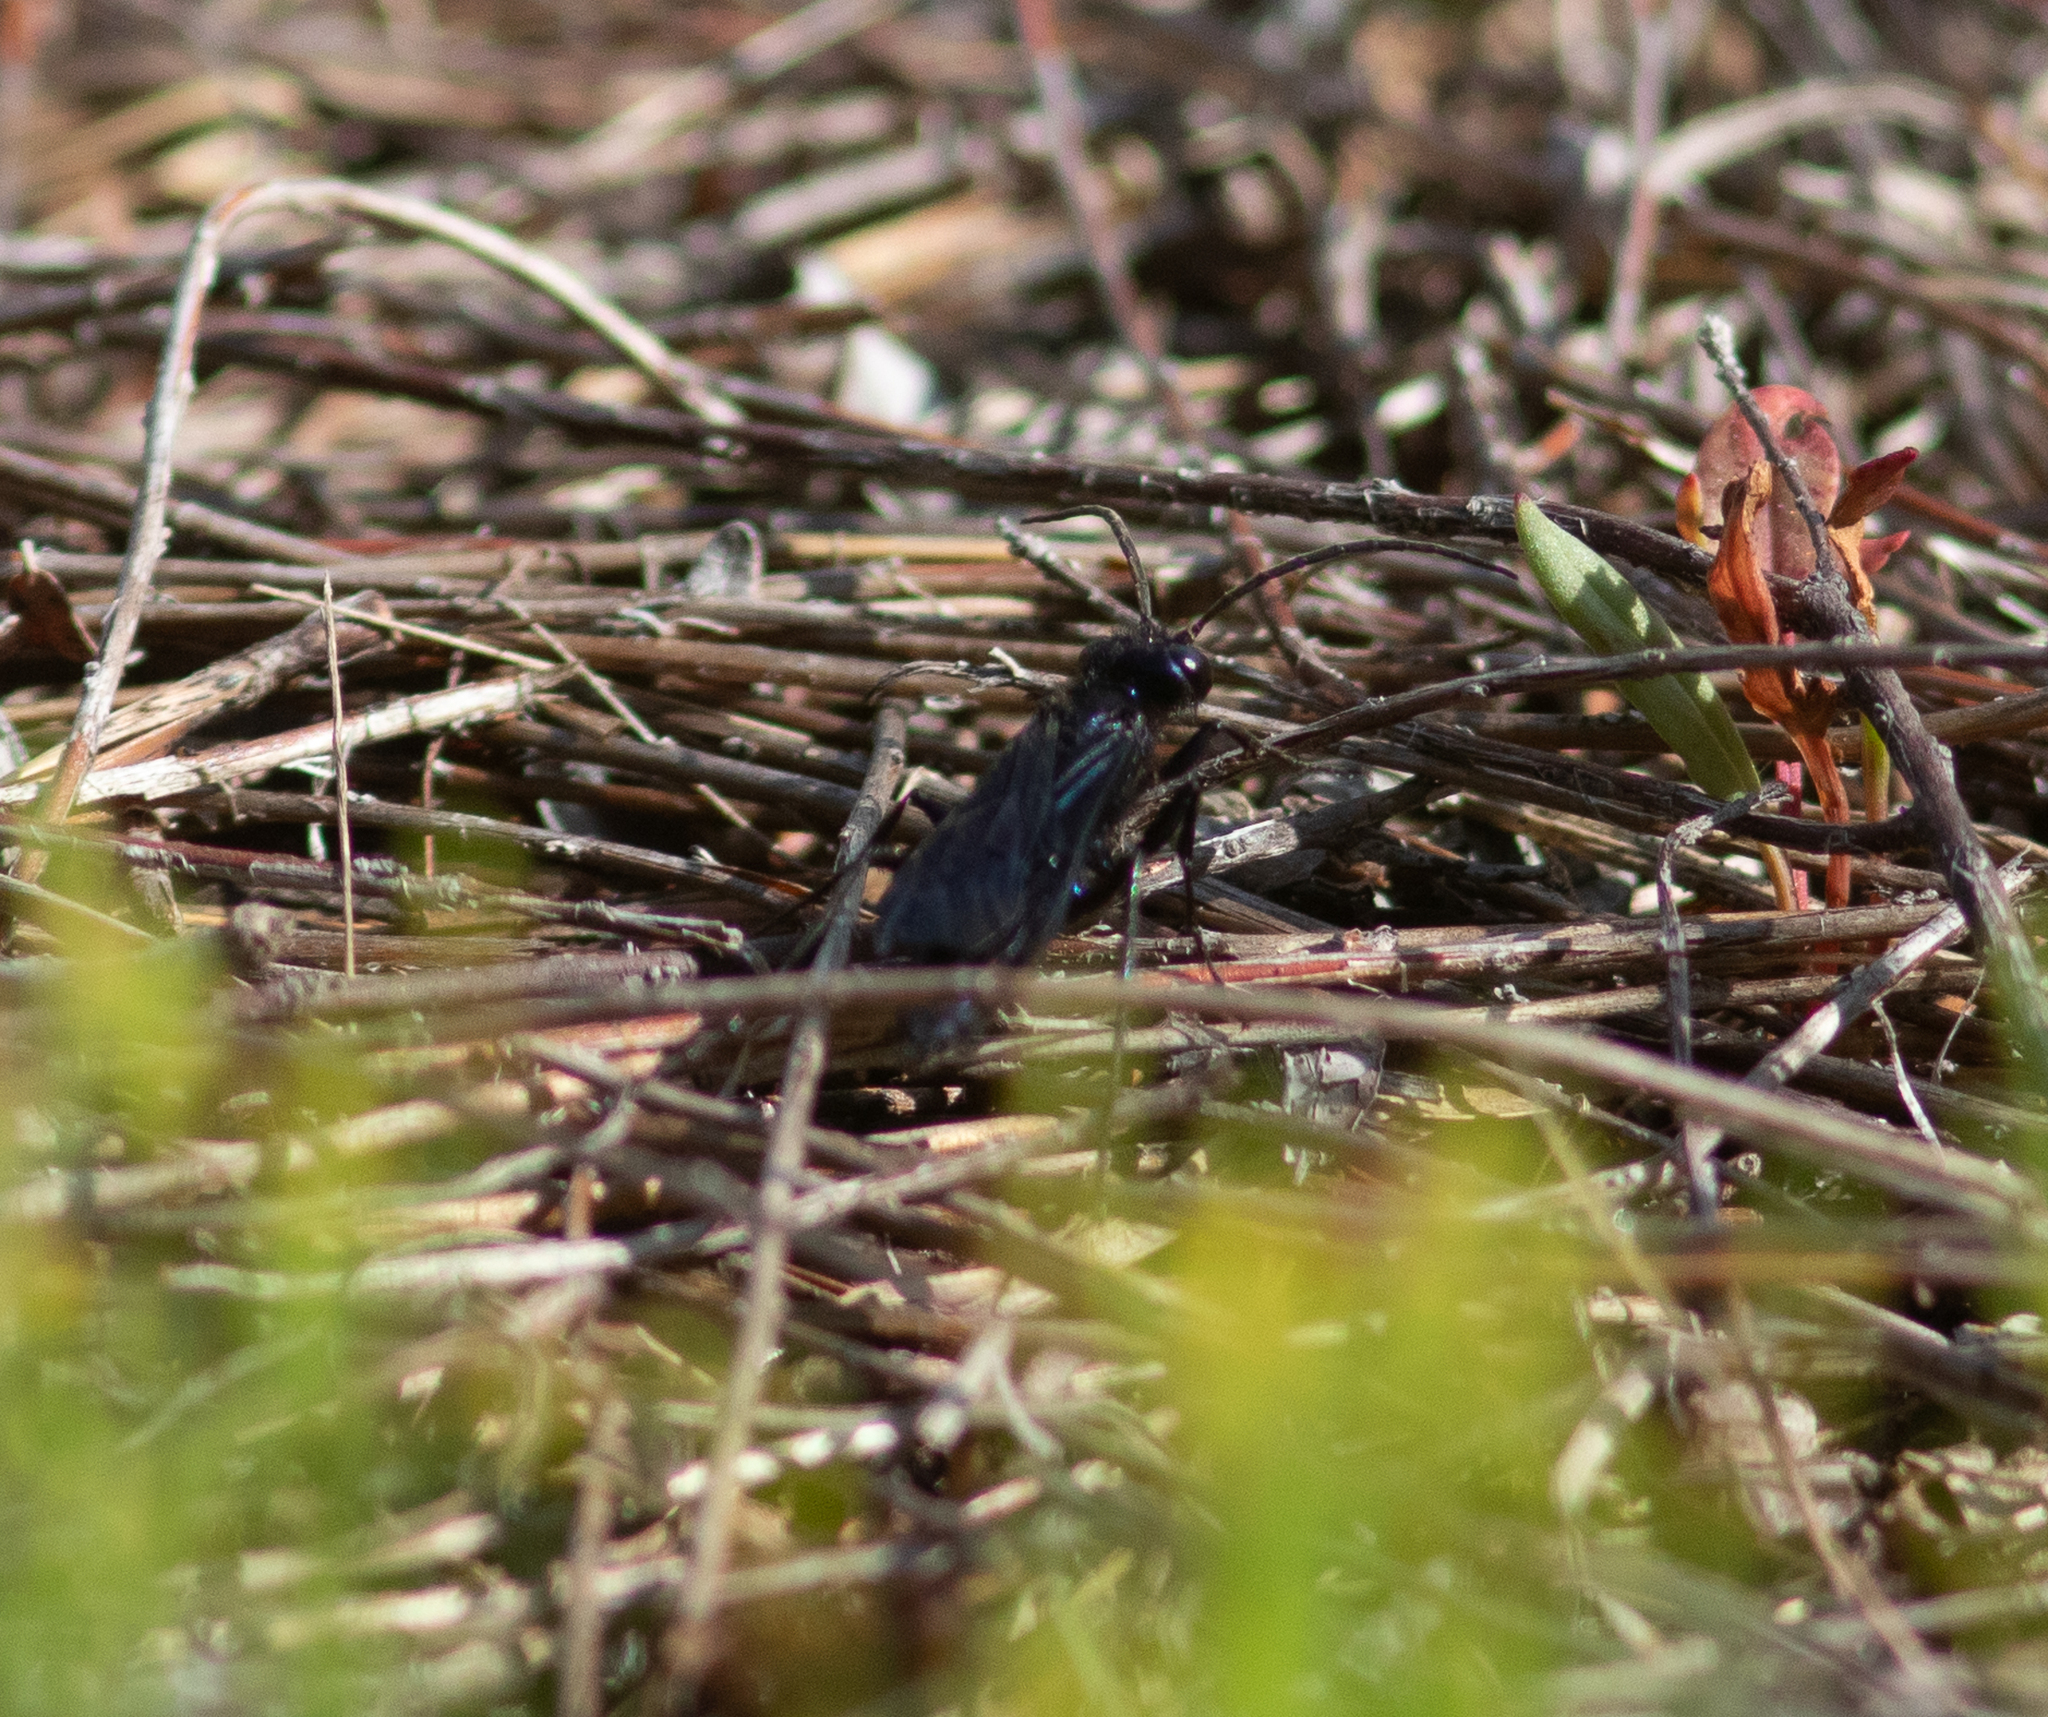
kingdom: Animalia
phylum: Arthropoda
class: Insecta
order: Hymenoptera
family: Sphecidae
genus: Chlorion
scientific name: Chlorion aerarium
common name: Steel-blue cricket hunter
